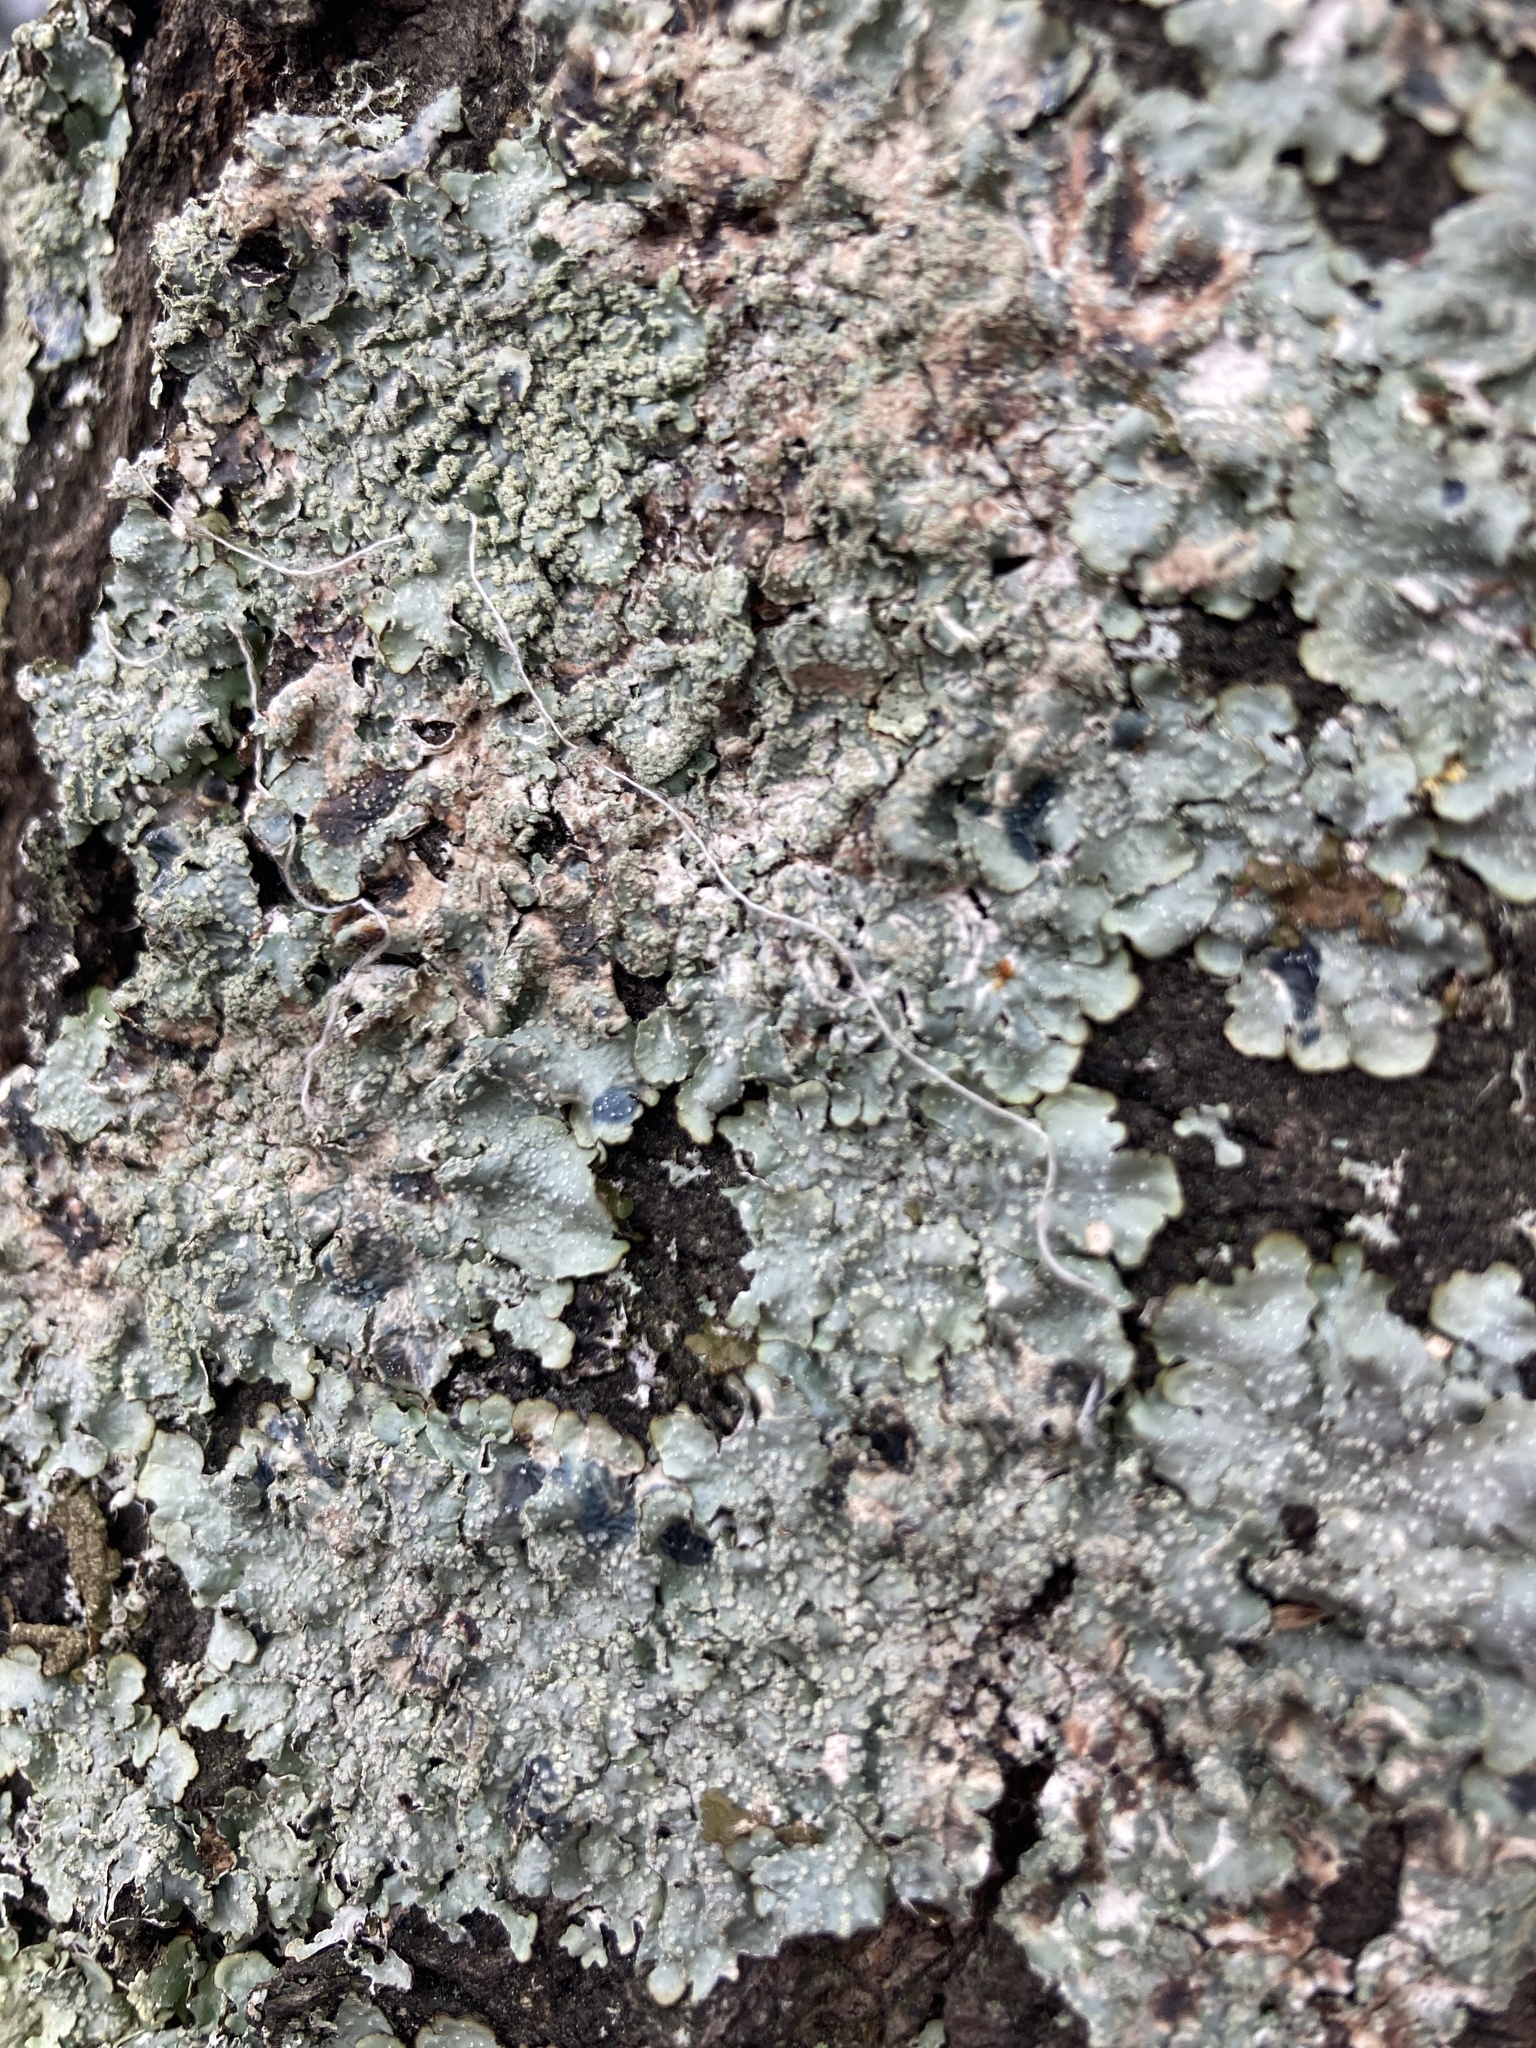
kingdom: Fungi
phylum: Ascomycota
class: Lecanoromycetes
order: Lecanorales
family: Parmeliaceae
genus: Punctelia
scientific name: Punctelia subrudecta
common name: Powdered speckled shield lichen
